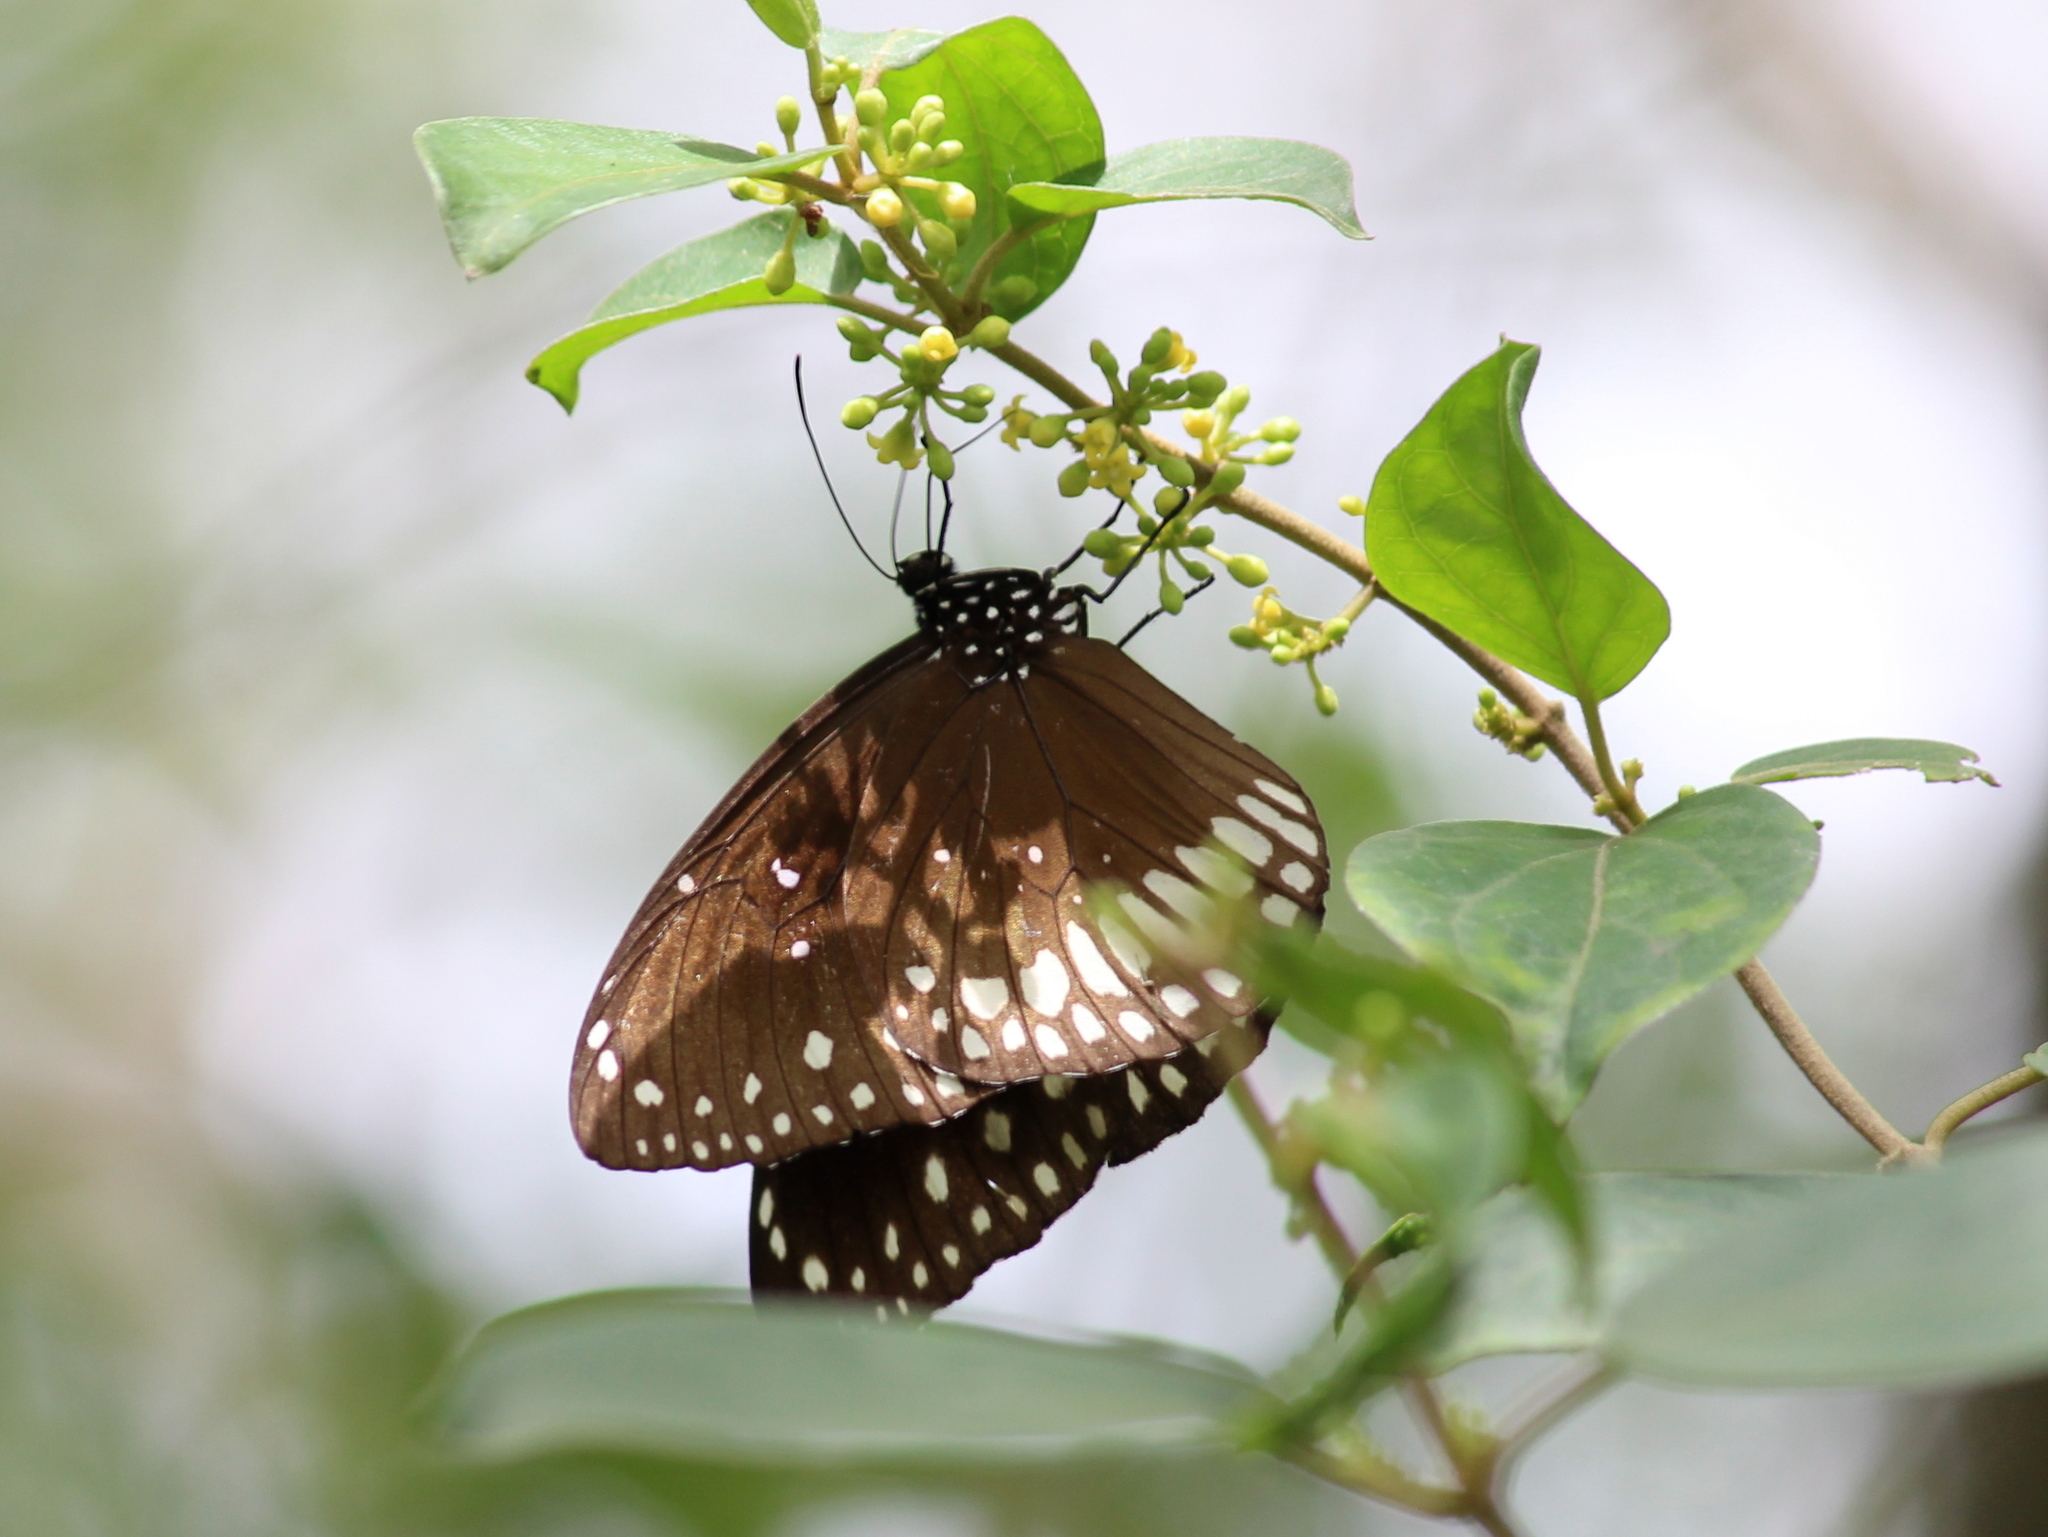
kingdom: Animalia
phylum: Arthropoda
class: Insecta
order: Lepidoptera
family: Nymphalidae
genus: Euploea
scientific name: Euploea core
